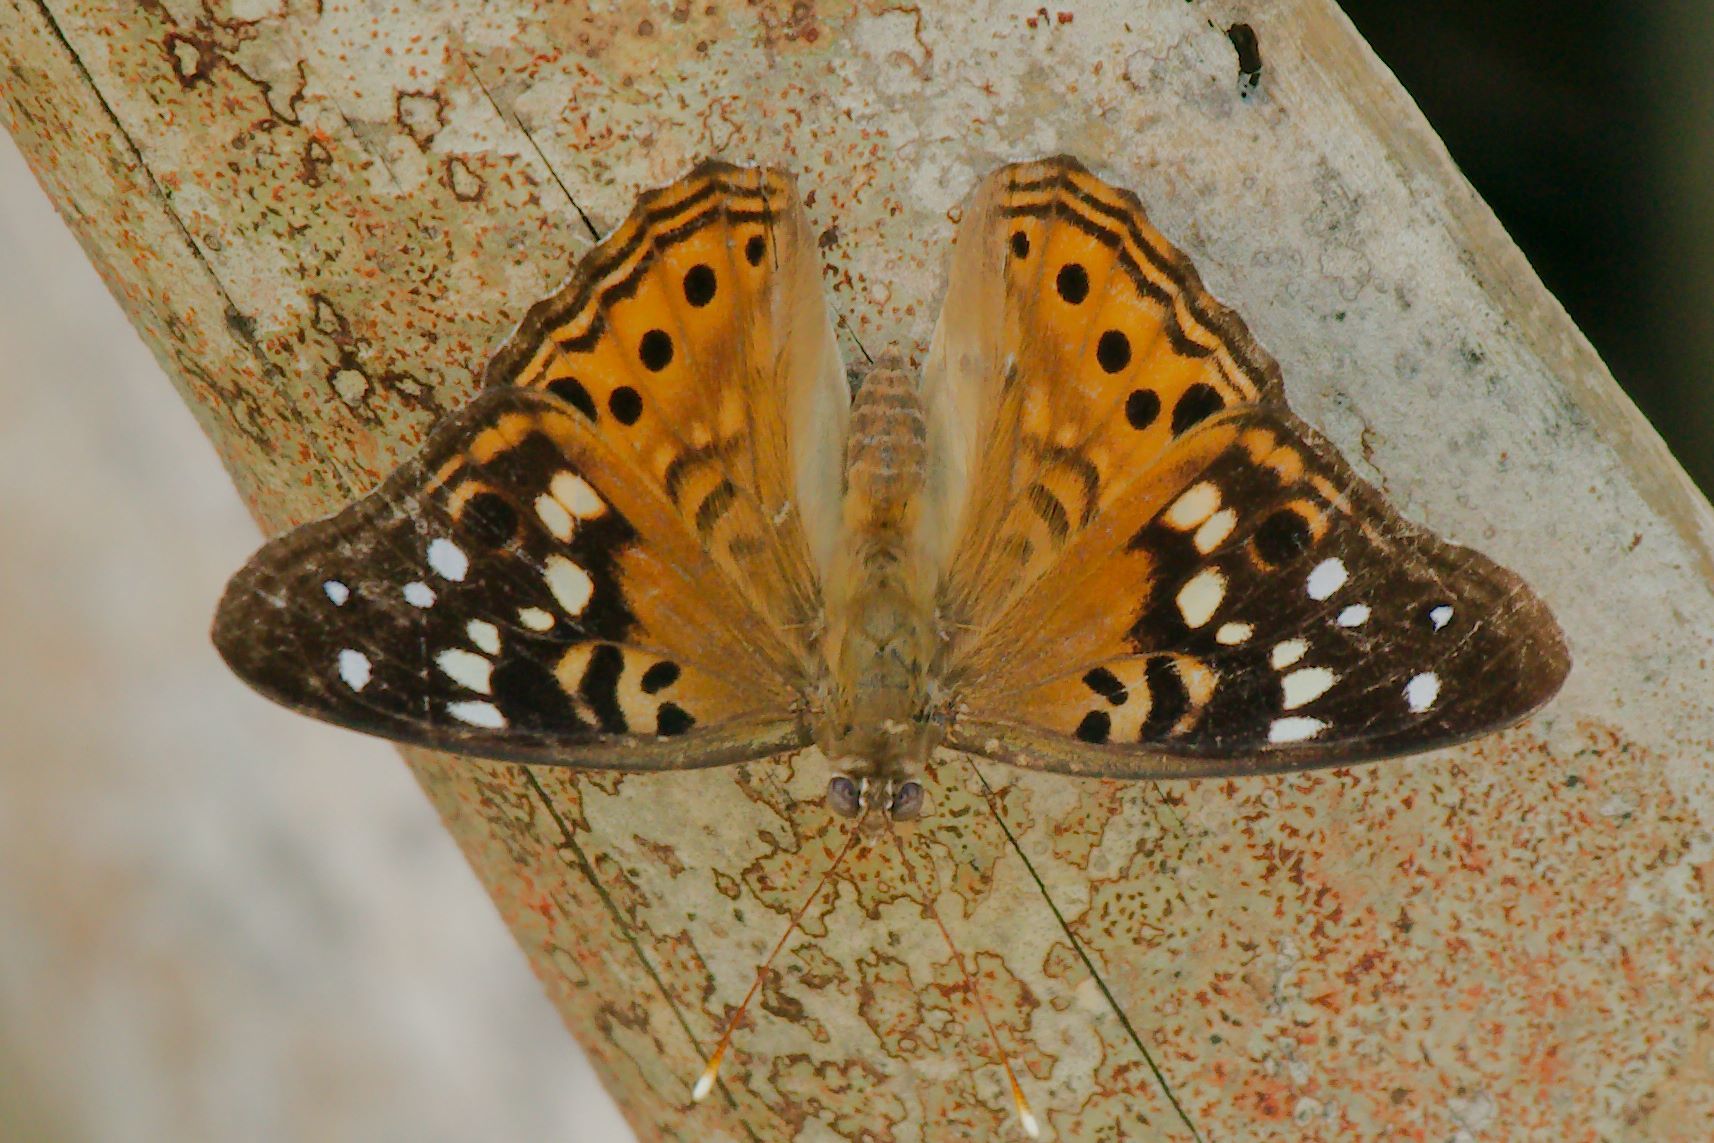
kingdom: Animalia
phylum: Arthropoda
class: Insecta
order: Lepidoptera
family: Nymphalidae
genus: Asterocampa
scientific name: Asterocampa celtis
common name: Hackberry emperor
